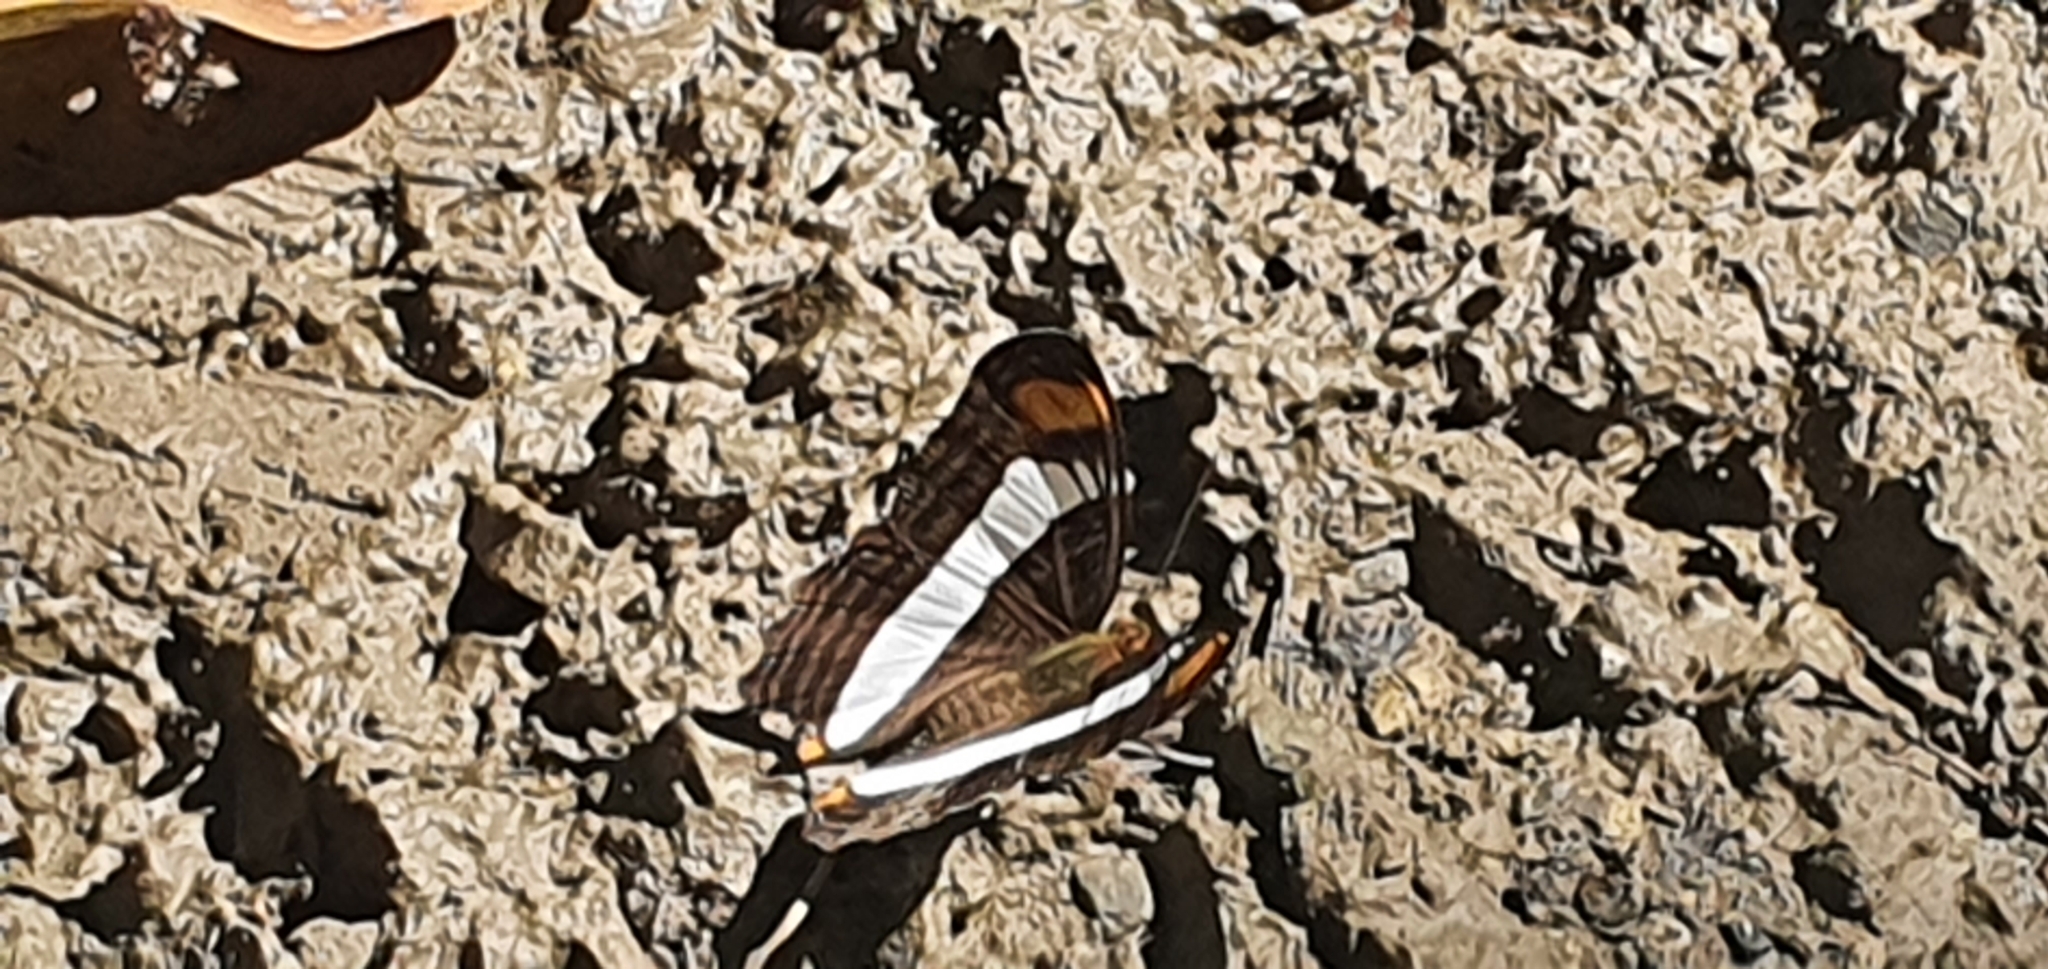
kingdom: Animalia
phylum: Arthropoda
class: Insecta
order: Lepidoptera
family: Nymphalidae
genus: Limenitis
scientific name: Limenitis Adelpha basiloides
